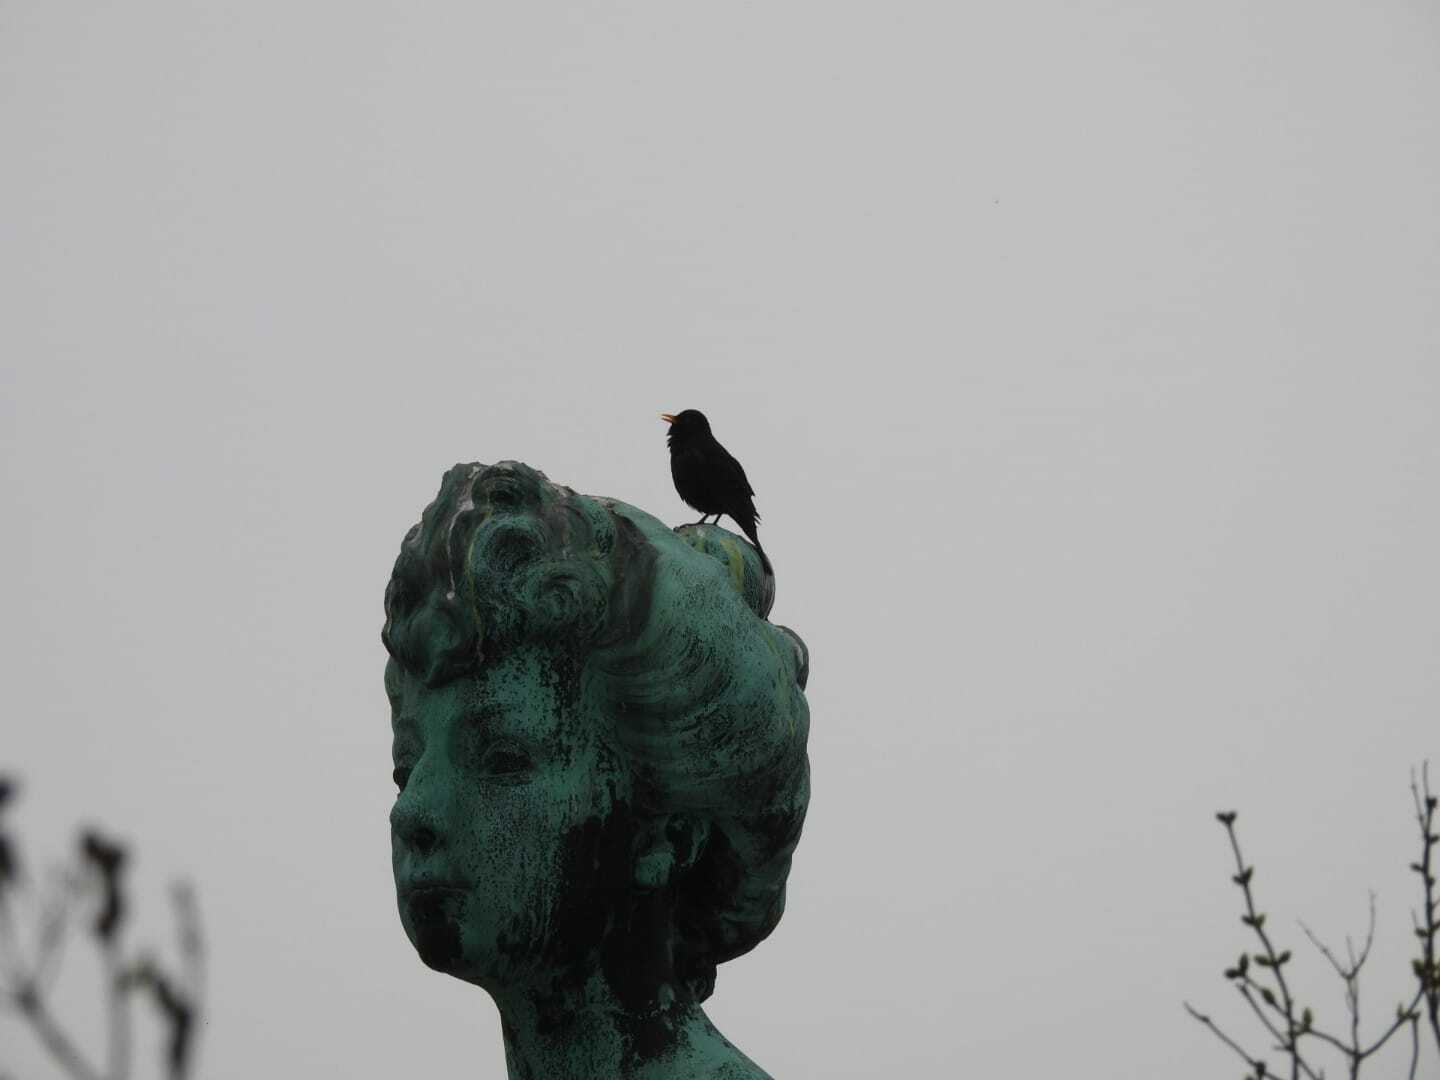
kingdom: Animalia
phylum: Chordata
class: Aves
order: Passeriformes
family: Turdidae
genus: Turdus
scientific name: Turdus merula
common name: Common blackbird
